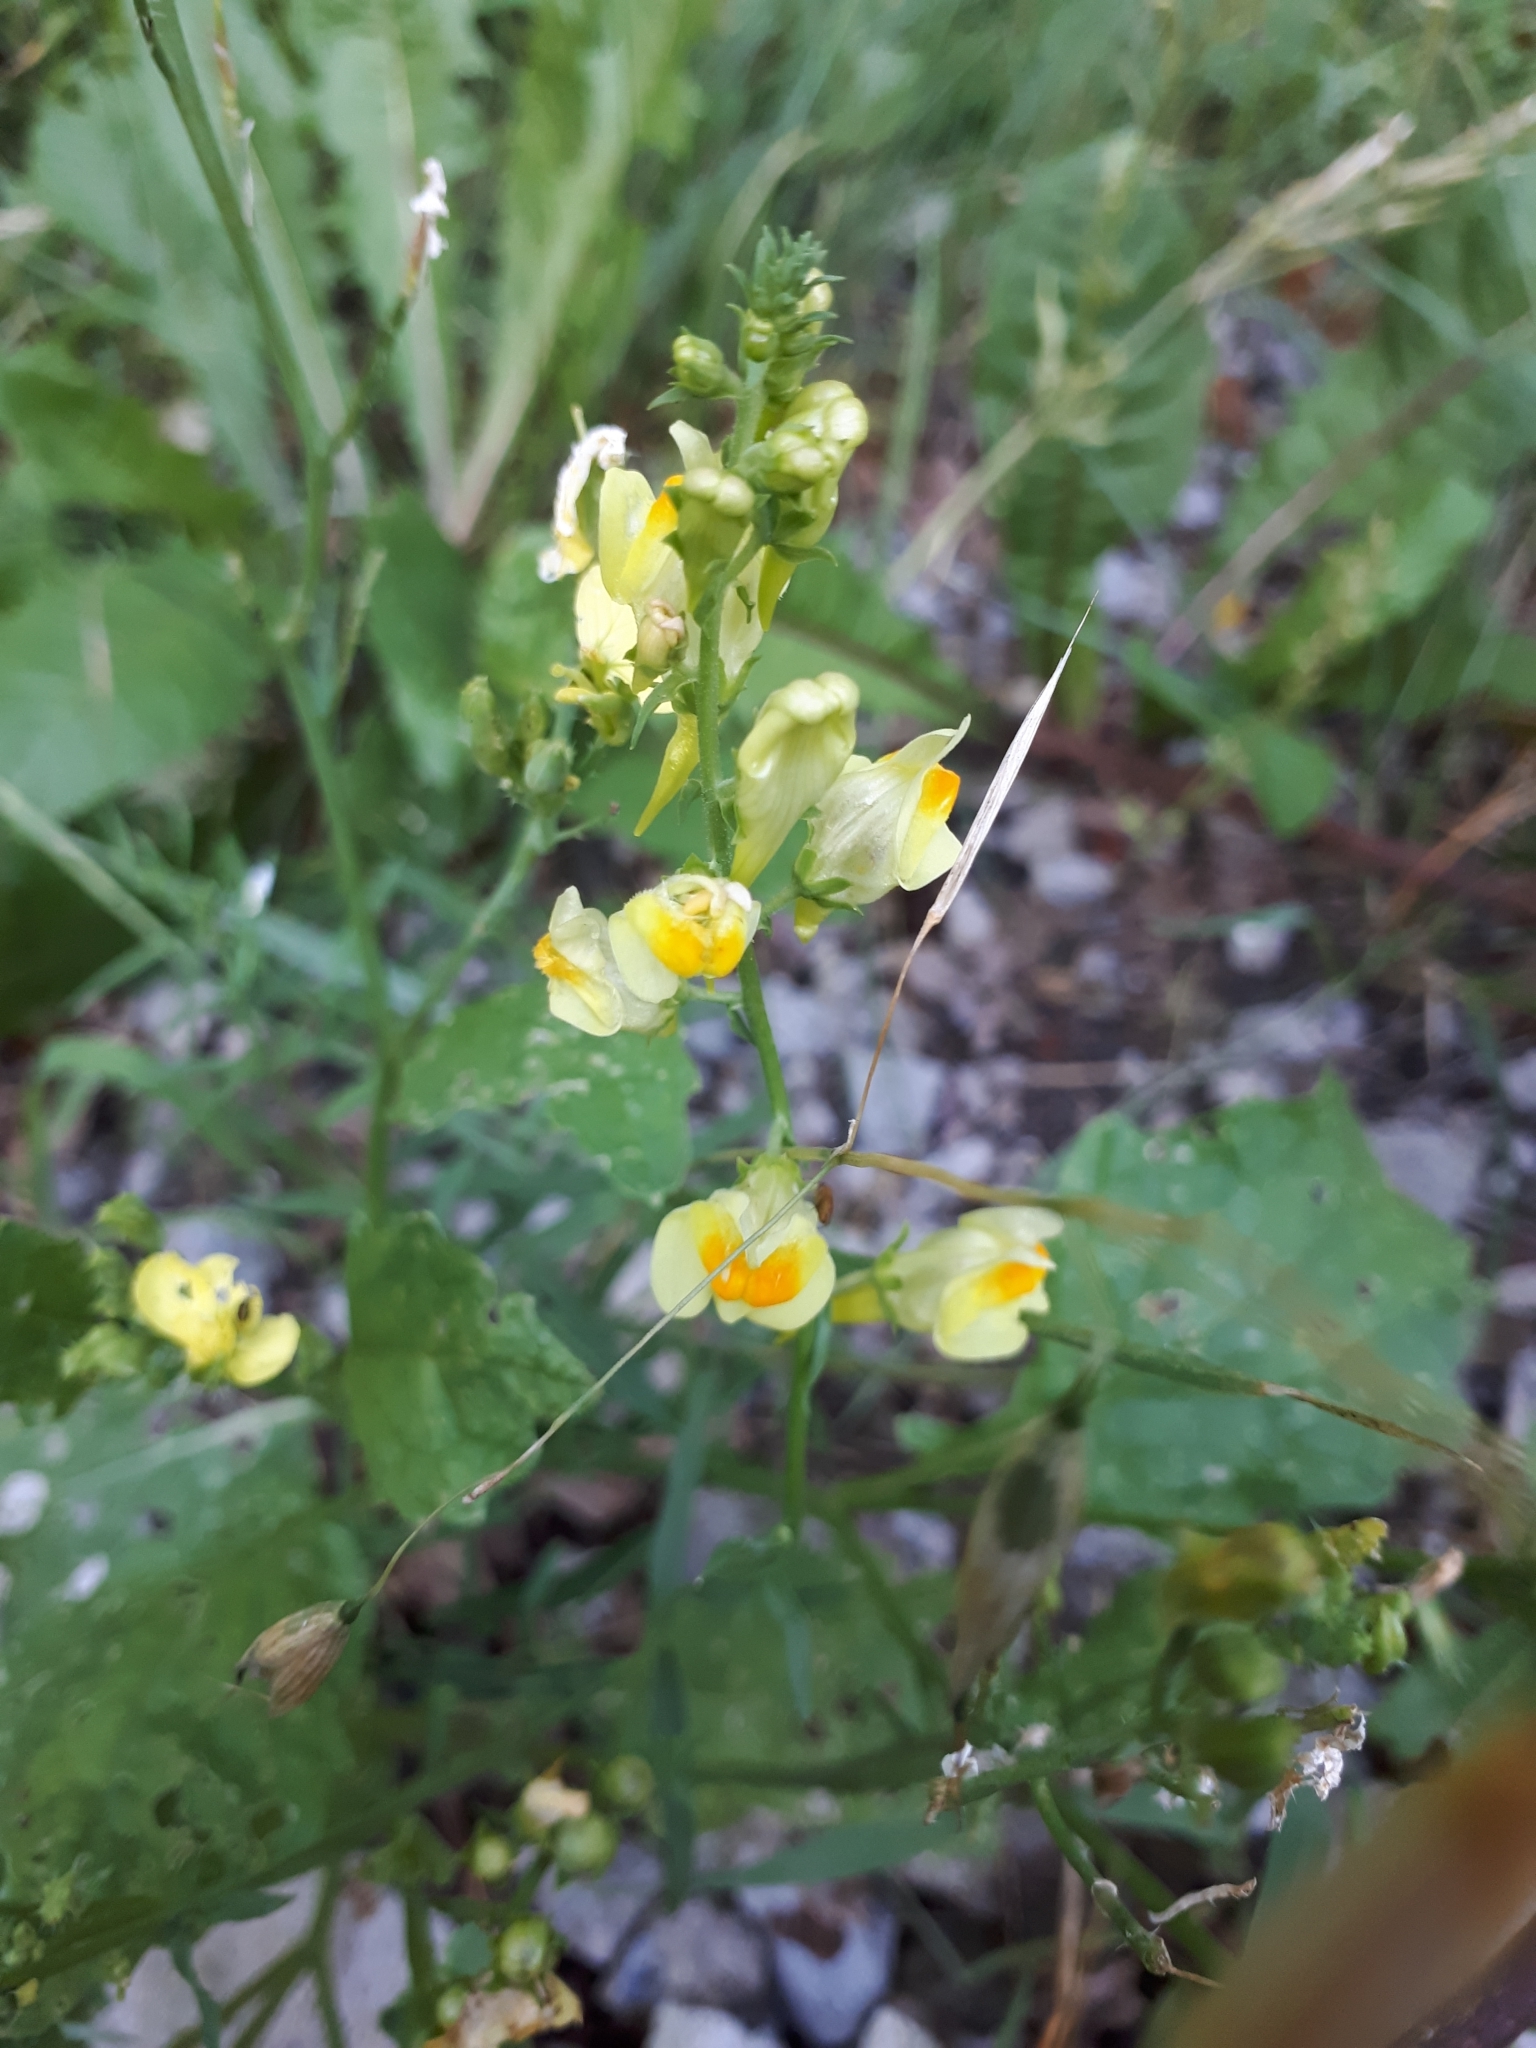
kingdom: Plantae
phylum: Tracheophyta
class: Magnoliopsida
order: Lamiales
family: Plantaginaceae
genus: Linaria
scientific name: Linaria vulgaris
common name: Butter and eggs
